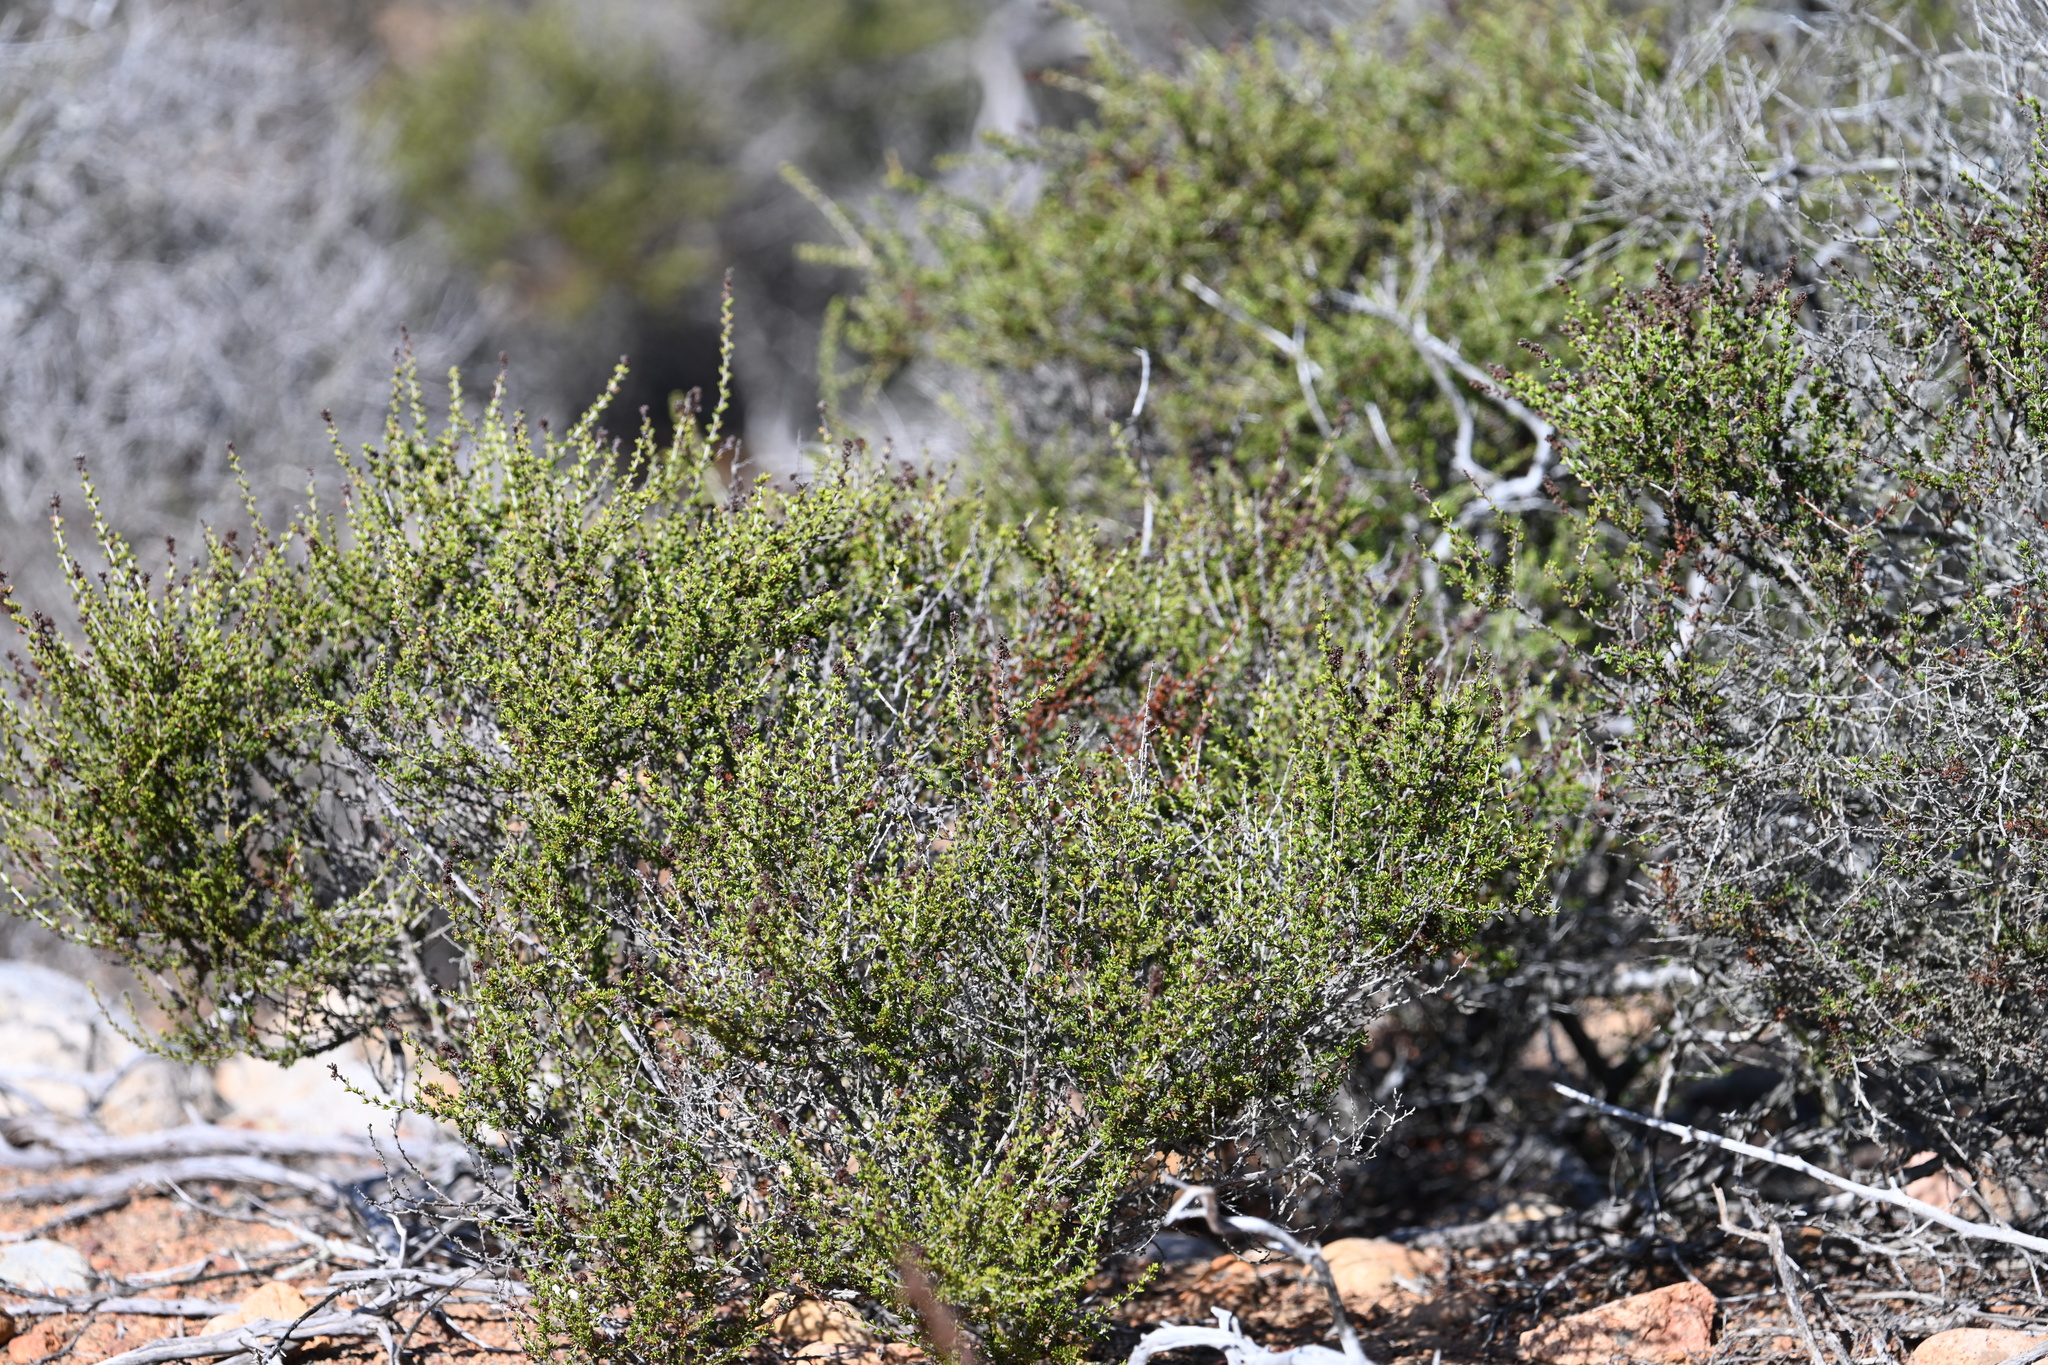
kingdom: Plantae
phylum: Tracheophyta
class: Magnoliopsida
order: Rosales
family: Rosaceae
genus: Adenostoma
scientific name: Adenostoma fasciculatum
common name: Chamise
